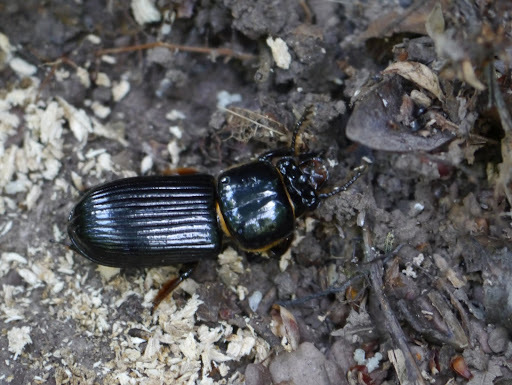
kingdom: Animalia
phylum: Arthropoda
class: Insecta
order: Coleoptera
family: Passalidae
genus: Odontotaenius
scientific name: Odontotaenius disjunctus
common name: Patent leather beetle
